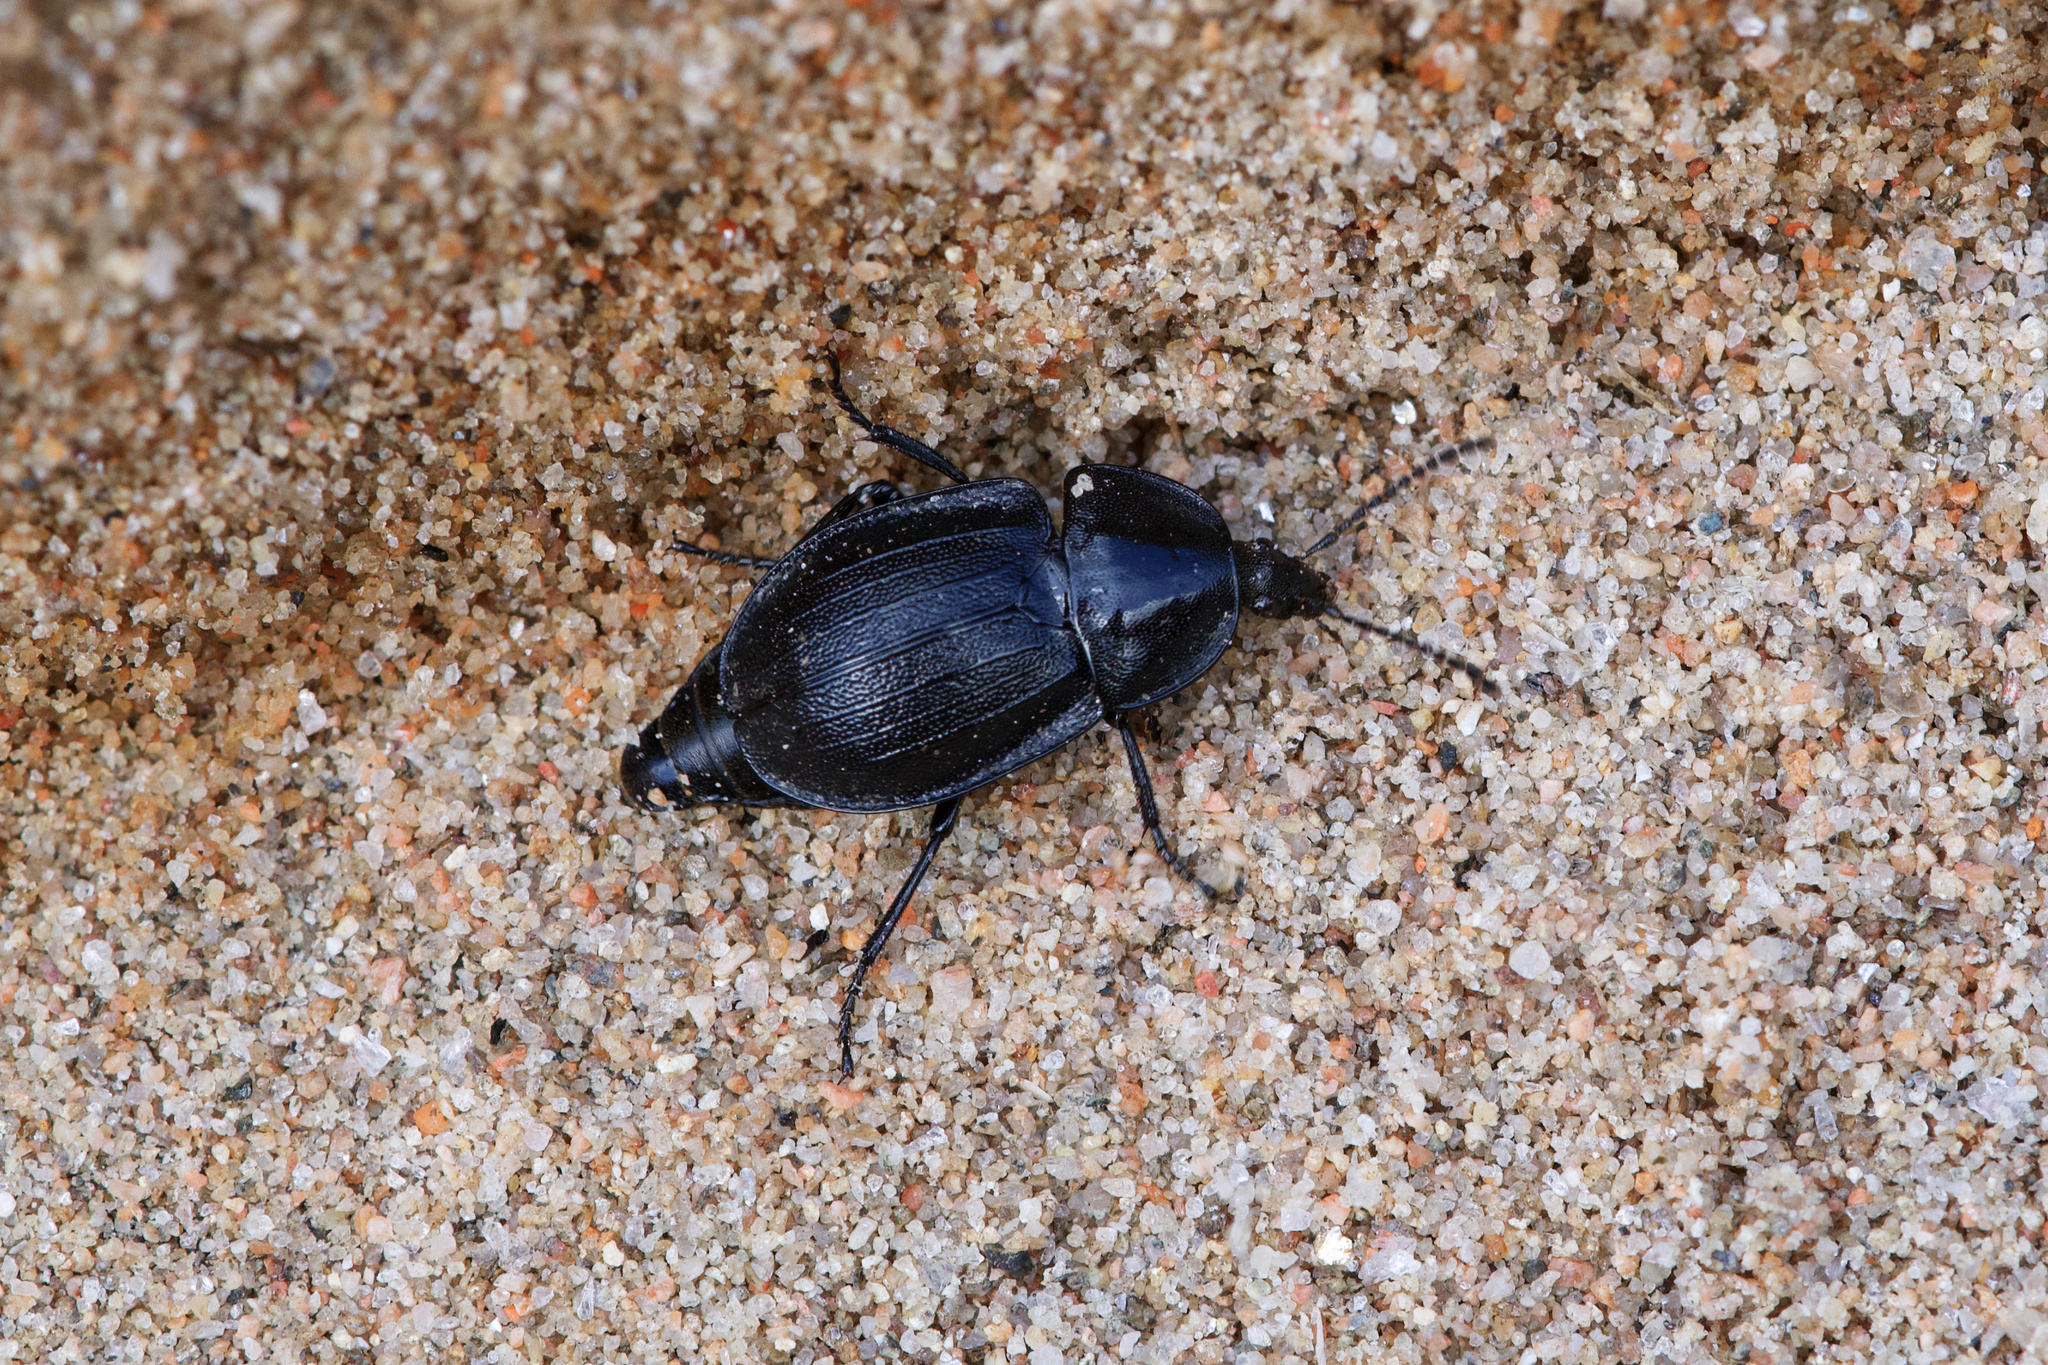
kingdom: Animalia
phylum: Arthropoda
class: Insecta
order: Coleoptera
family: Staphylinidae
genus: Silpha
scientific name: Silpha atrata
